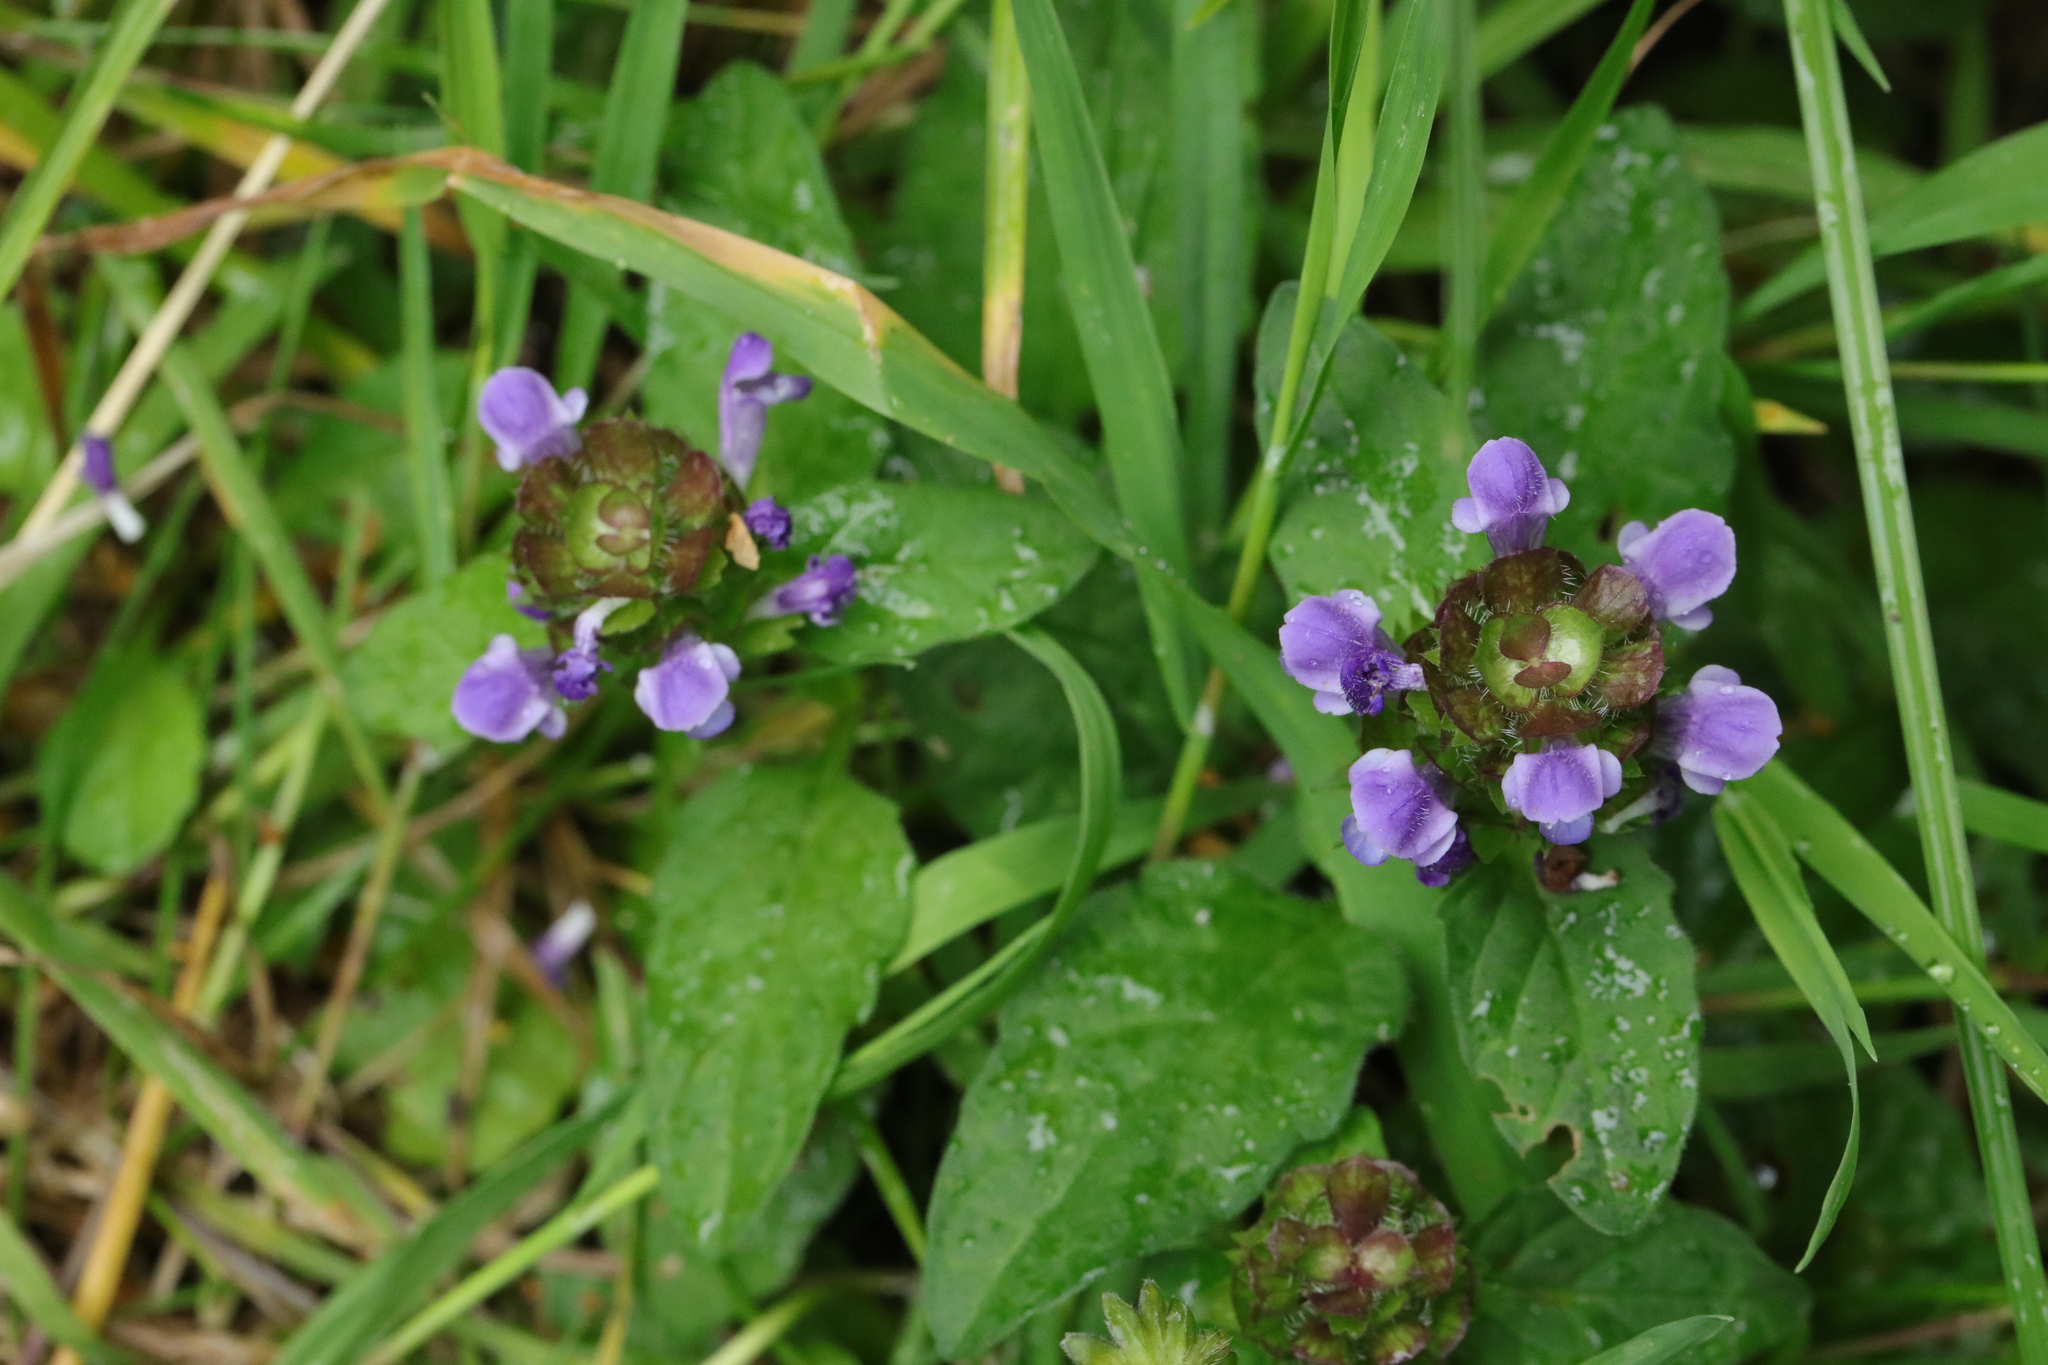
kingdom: Plantae
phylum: Tracheophyta
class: Magnoliopsida
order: Lamiales
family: Lamiaceae
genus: Prunella
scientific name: Prunella vulgaris
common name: Heal-all
